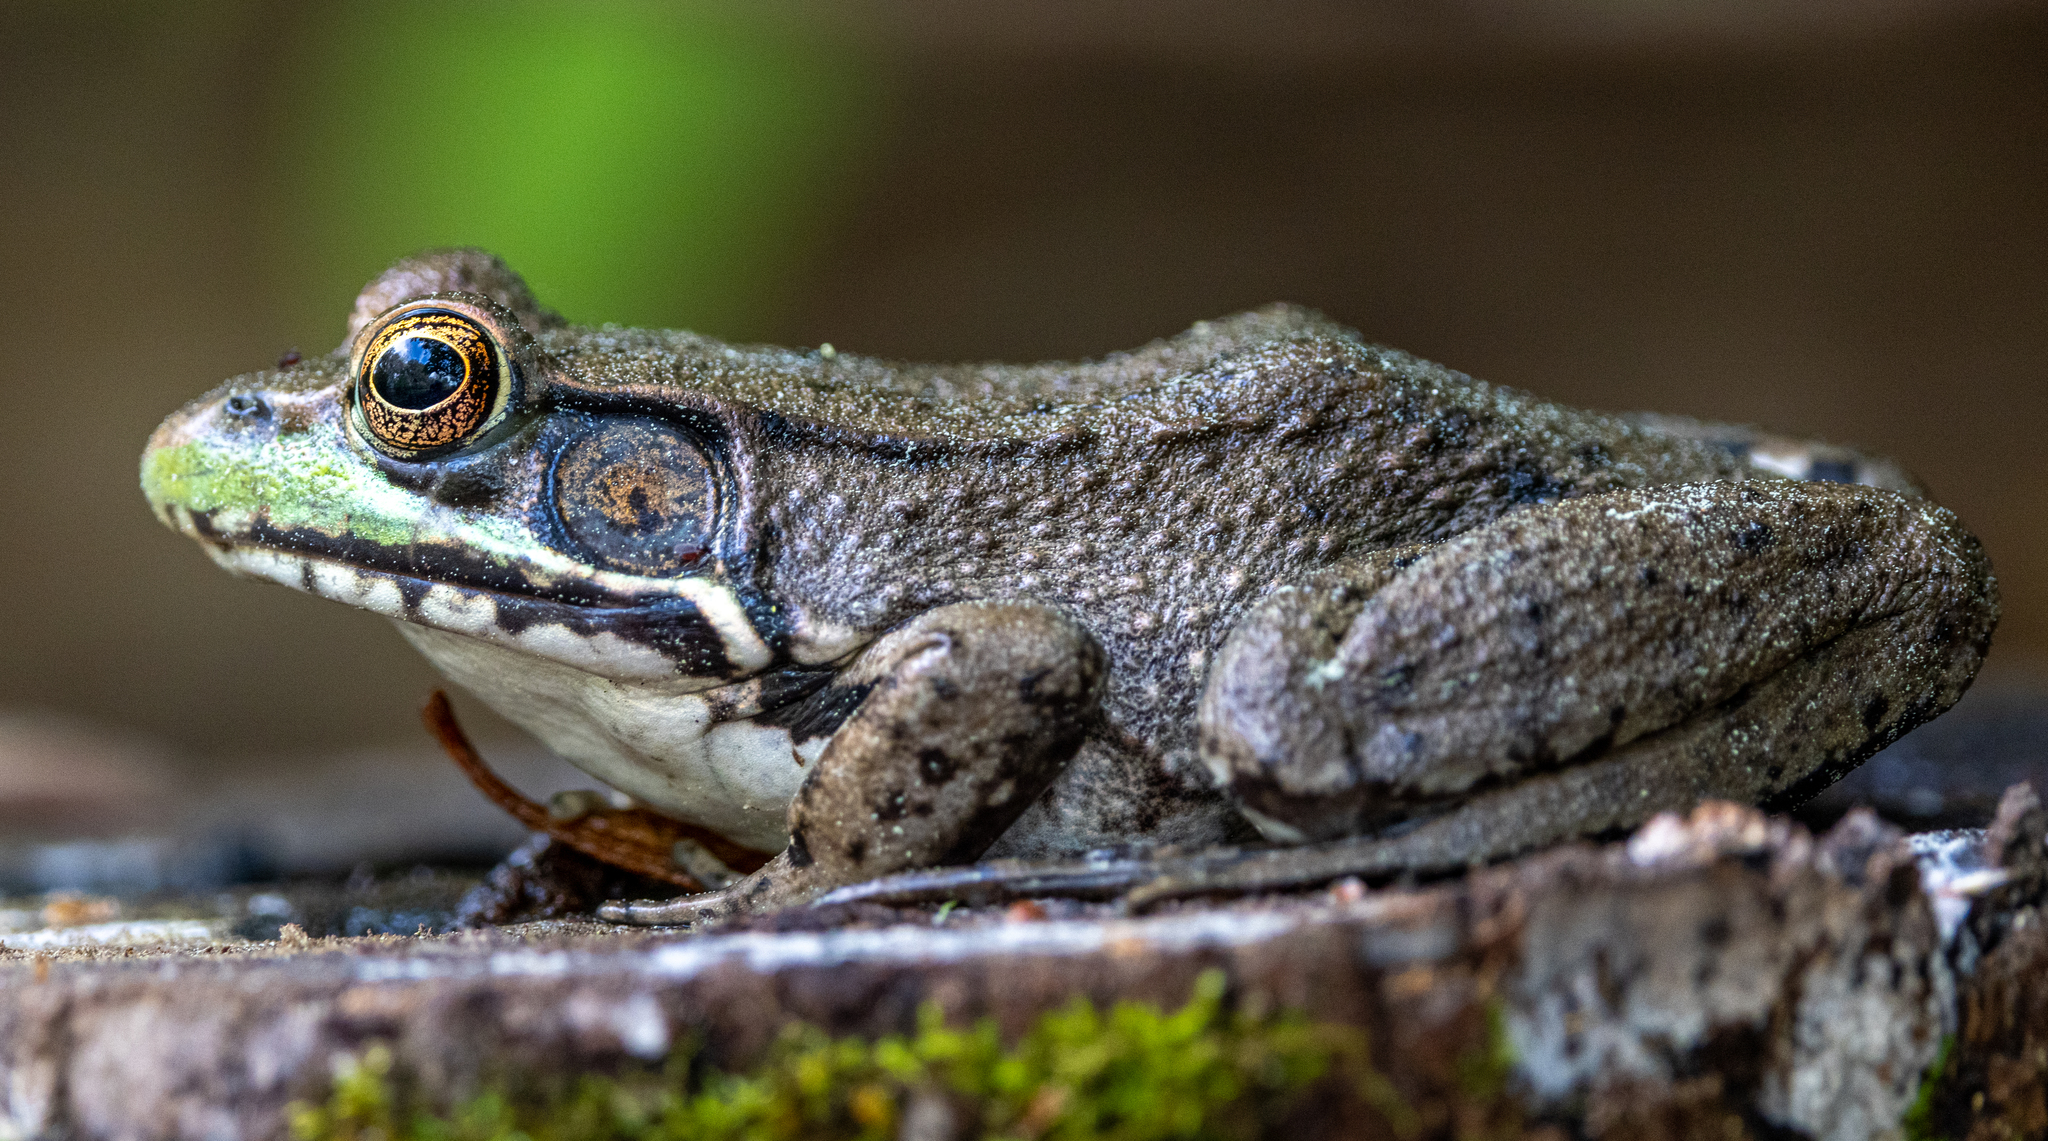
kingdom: Animalia
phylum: Chordata
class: Amphibia
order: Anura
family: Ranidae
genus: Lithobates
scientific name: Lithobates clamitans
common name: Green frog
